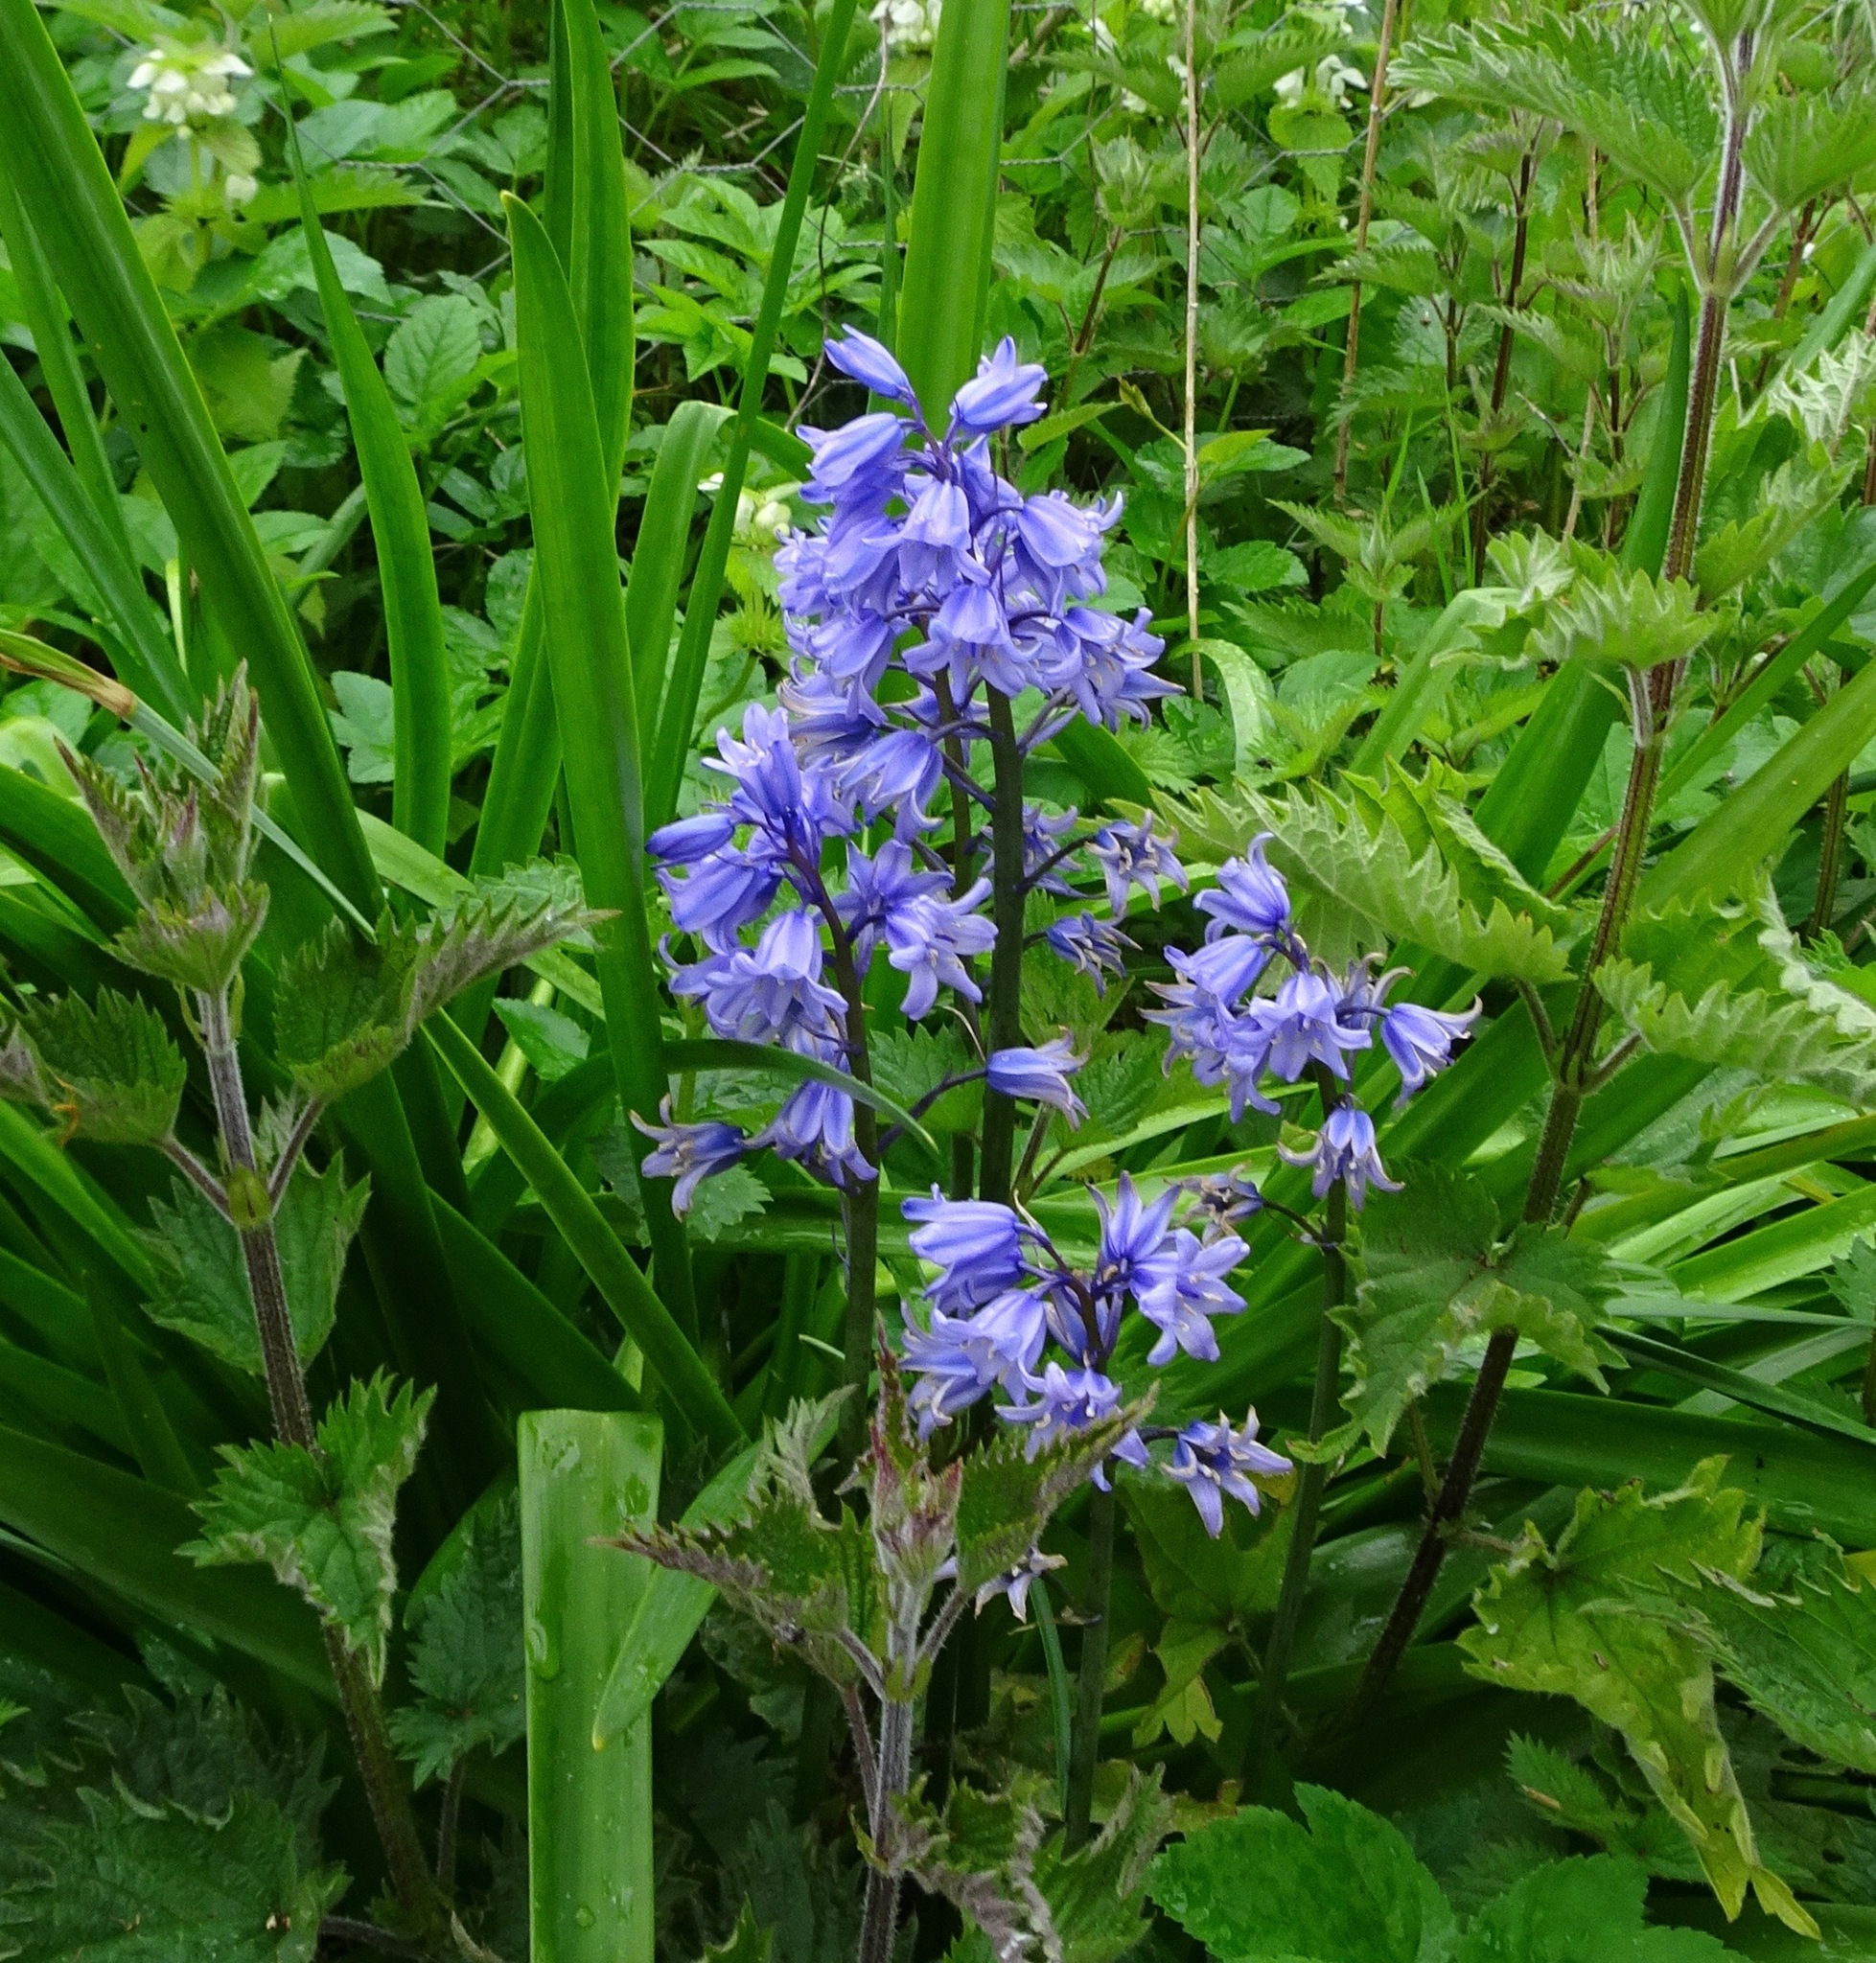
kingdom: Plantae
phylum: Tracheophyta
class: Liliopsida
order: Asparagales
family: Asparagaceae
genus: Hyacinthoides
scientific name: Hyacinthoides hispanica
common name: Spanish bluebell
